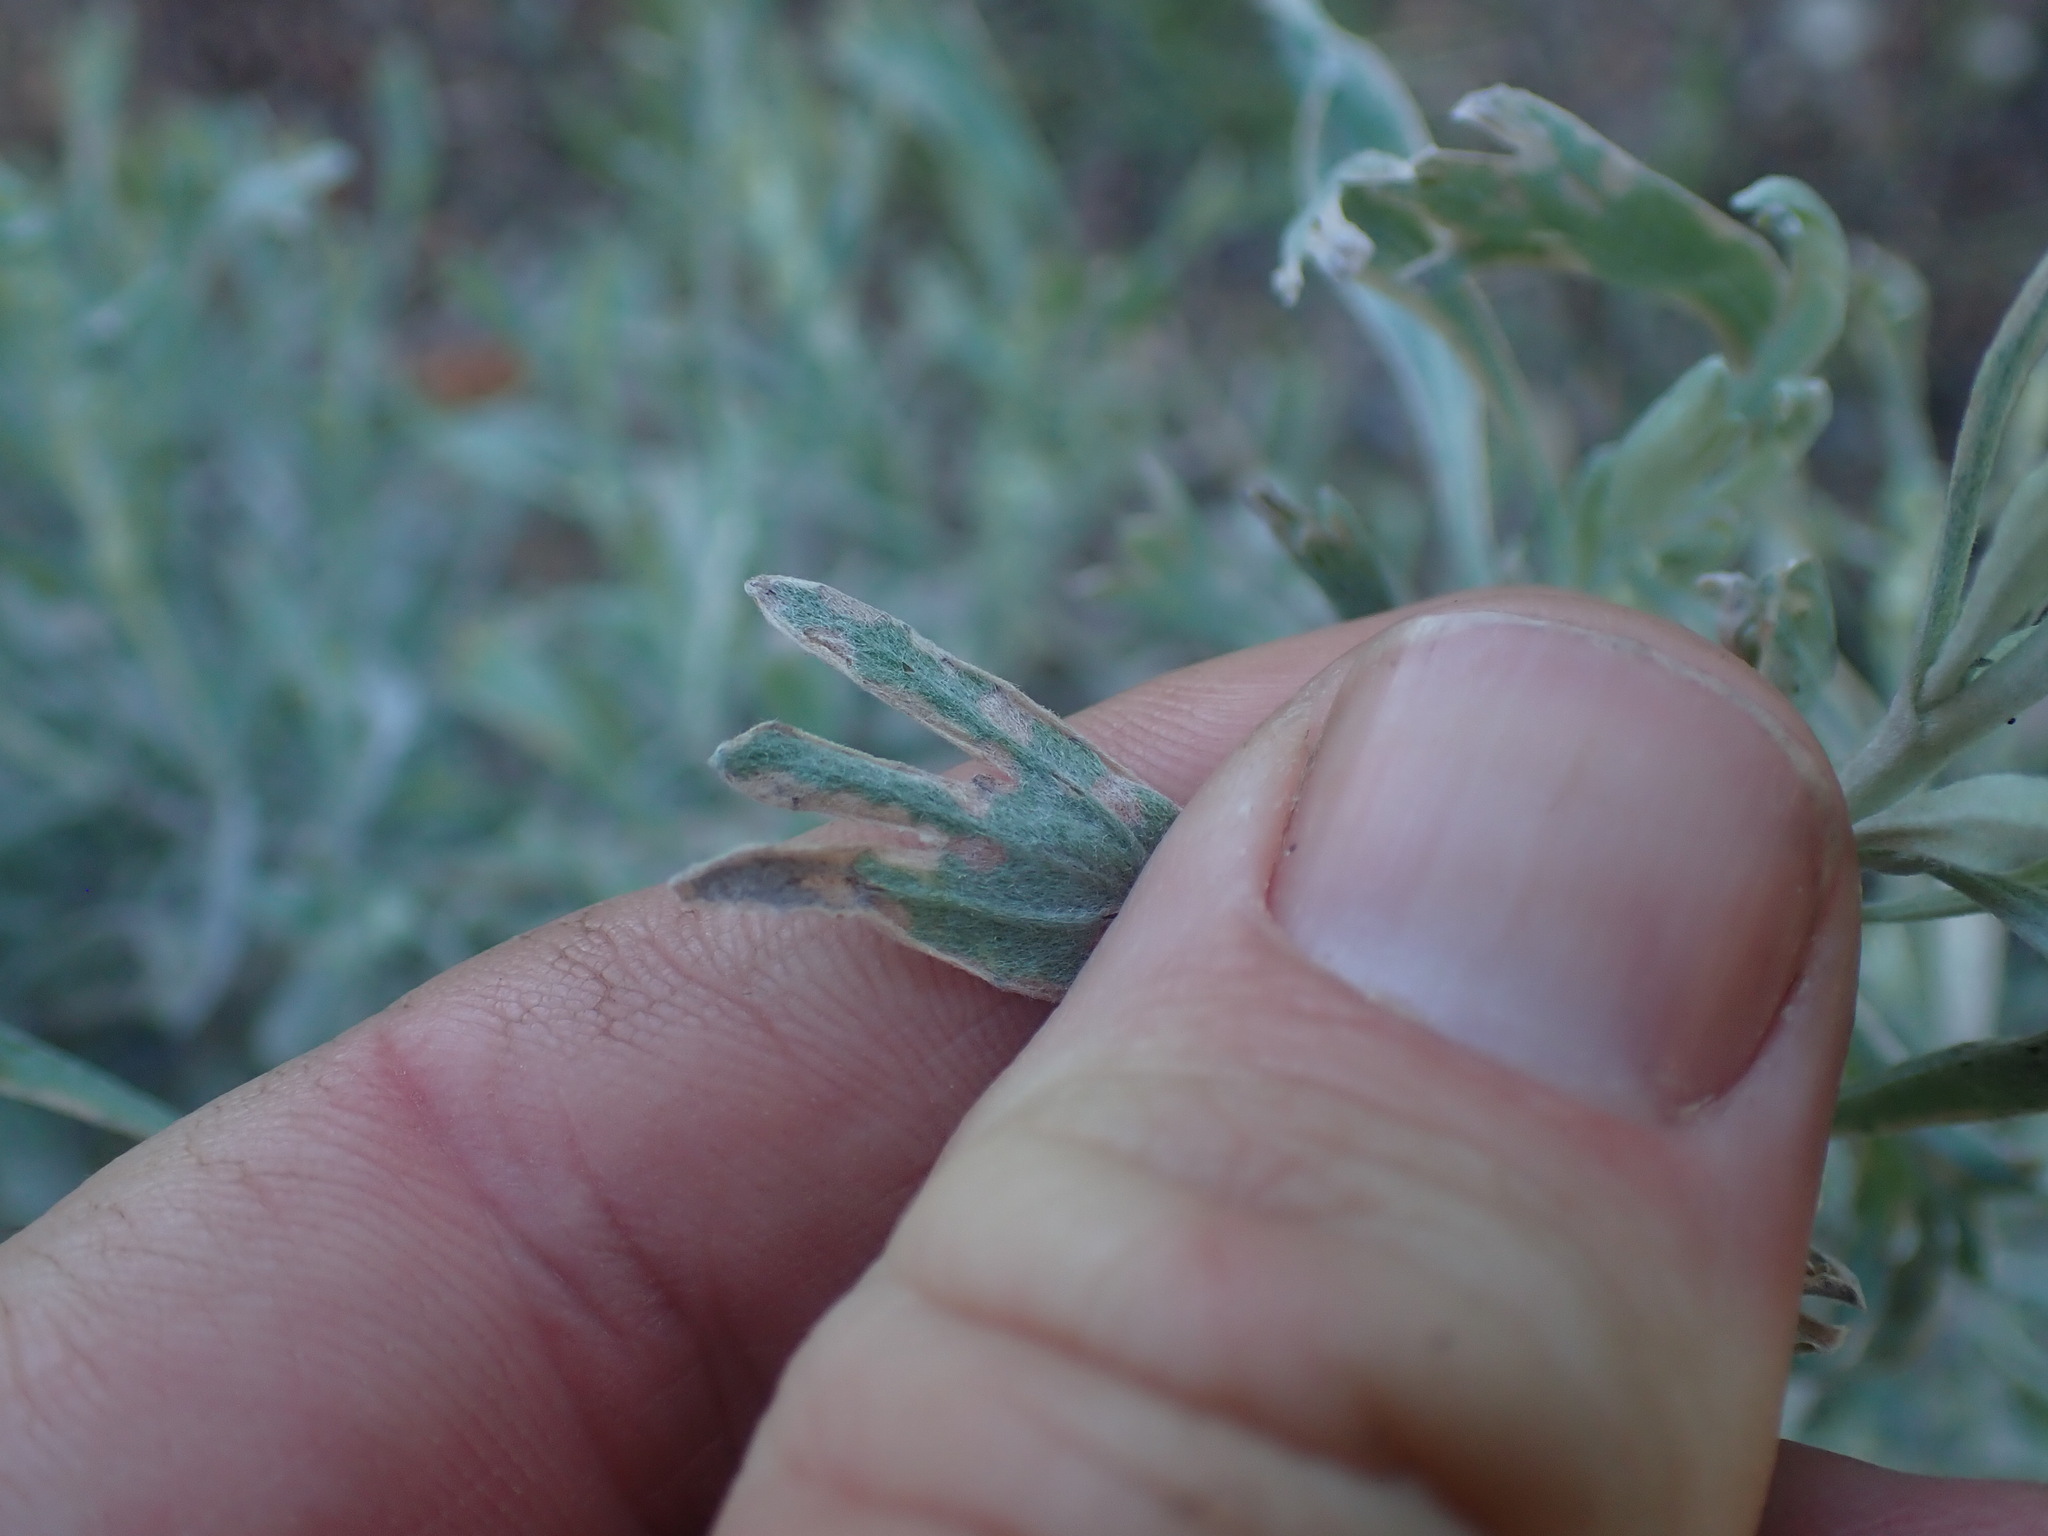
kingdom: Plantae
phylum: Tracheophyta
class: Magnoliopsida
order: Asterales
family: Asteraceae
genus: Artemisia
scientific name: Artemisia tridentata
